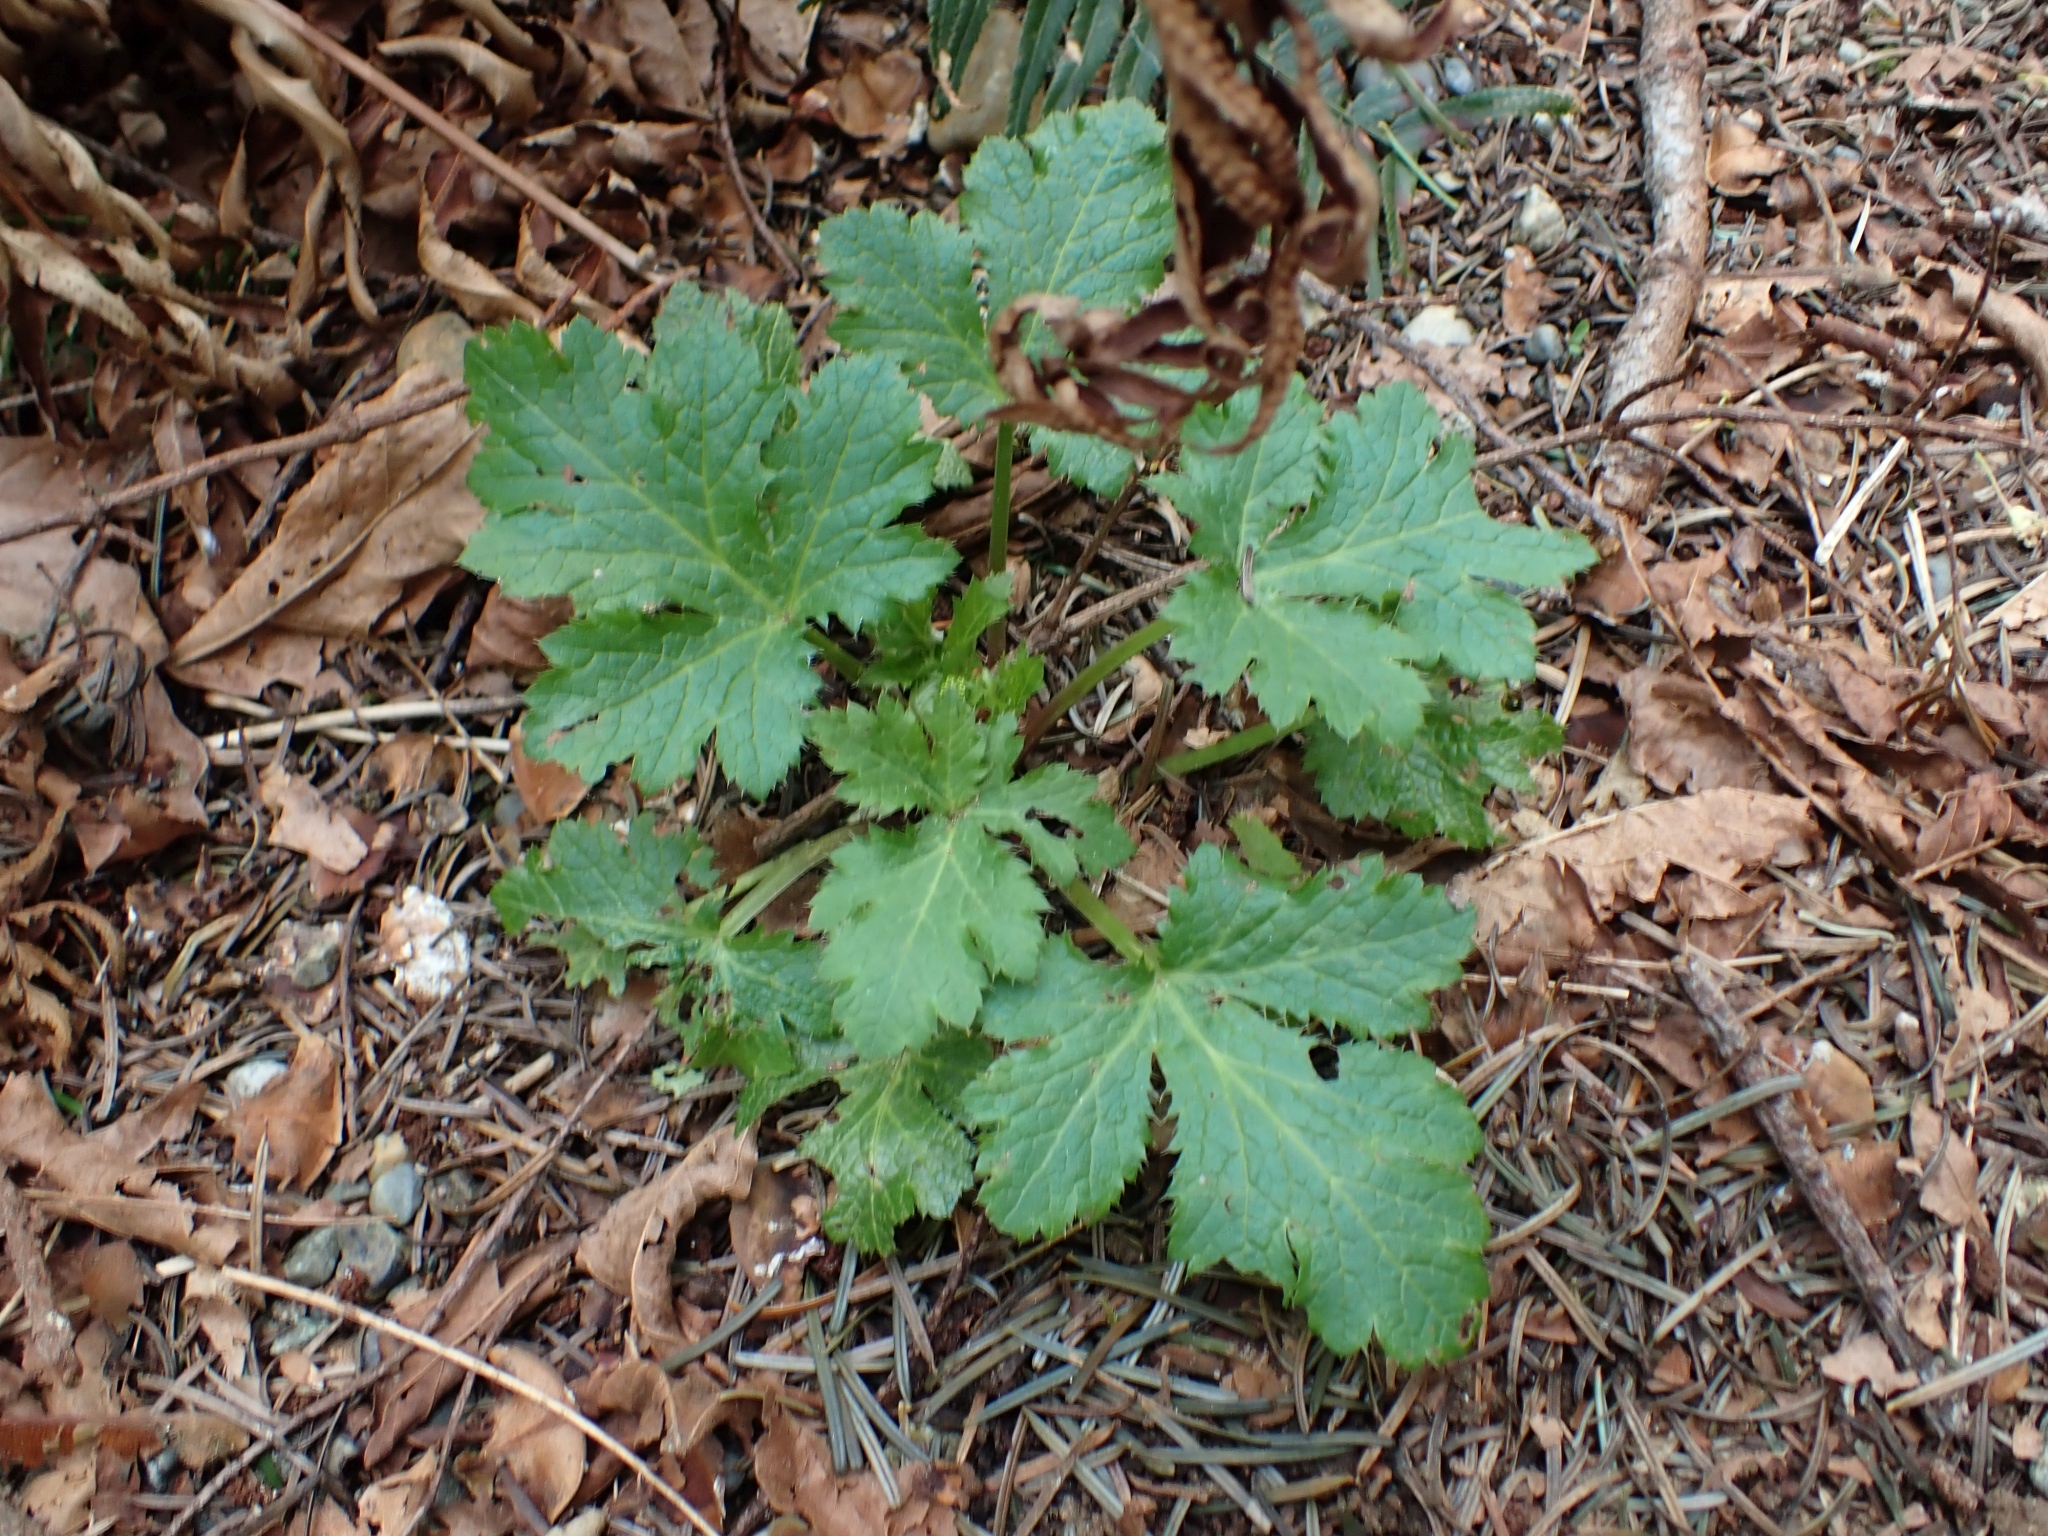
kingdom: Plantae
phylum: Tracheophyta
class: Magnoliopsida
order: Apiales
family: Apiaceae
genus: Sanicula
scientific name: Sanicula crassicaulis
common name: Western snakeroot
